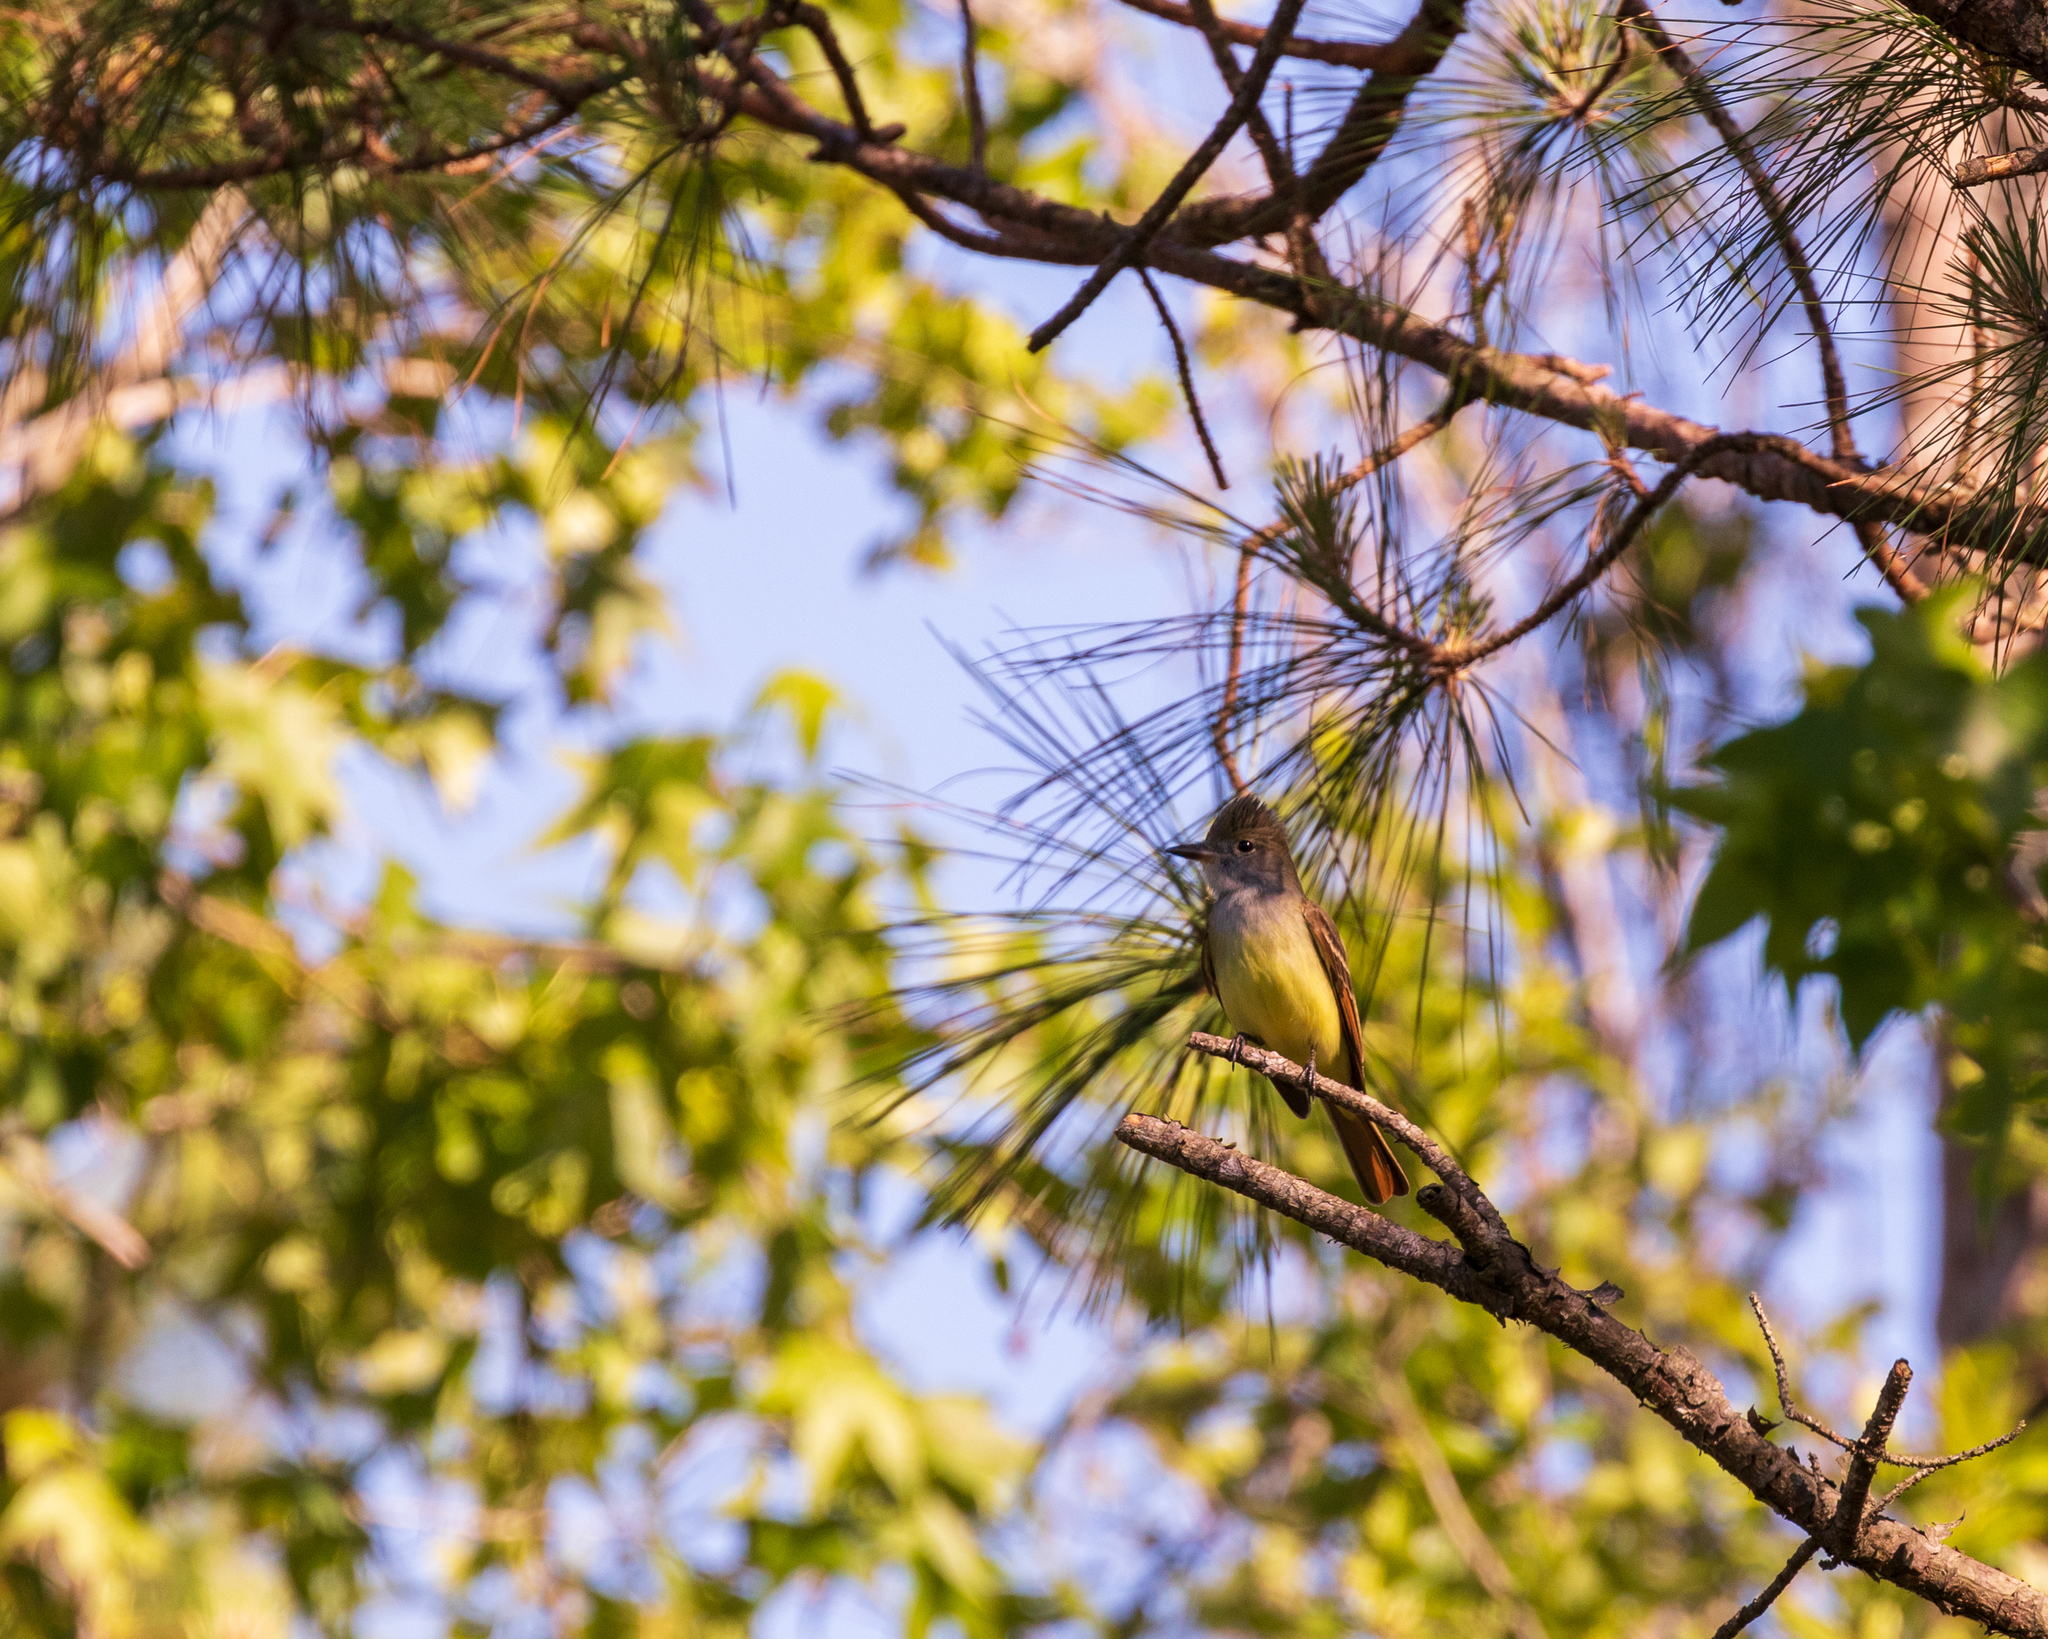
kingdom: Animalia
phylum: Chordata
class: Aves
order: Passeriformes
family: Tyrannidae
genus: Myiarchus
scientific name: Myiarchus crinitus
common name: Great crested flycatcher
